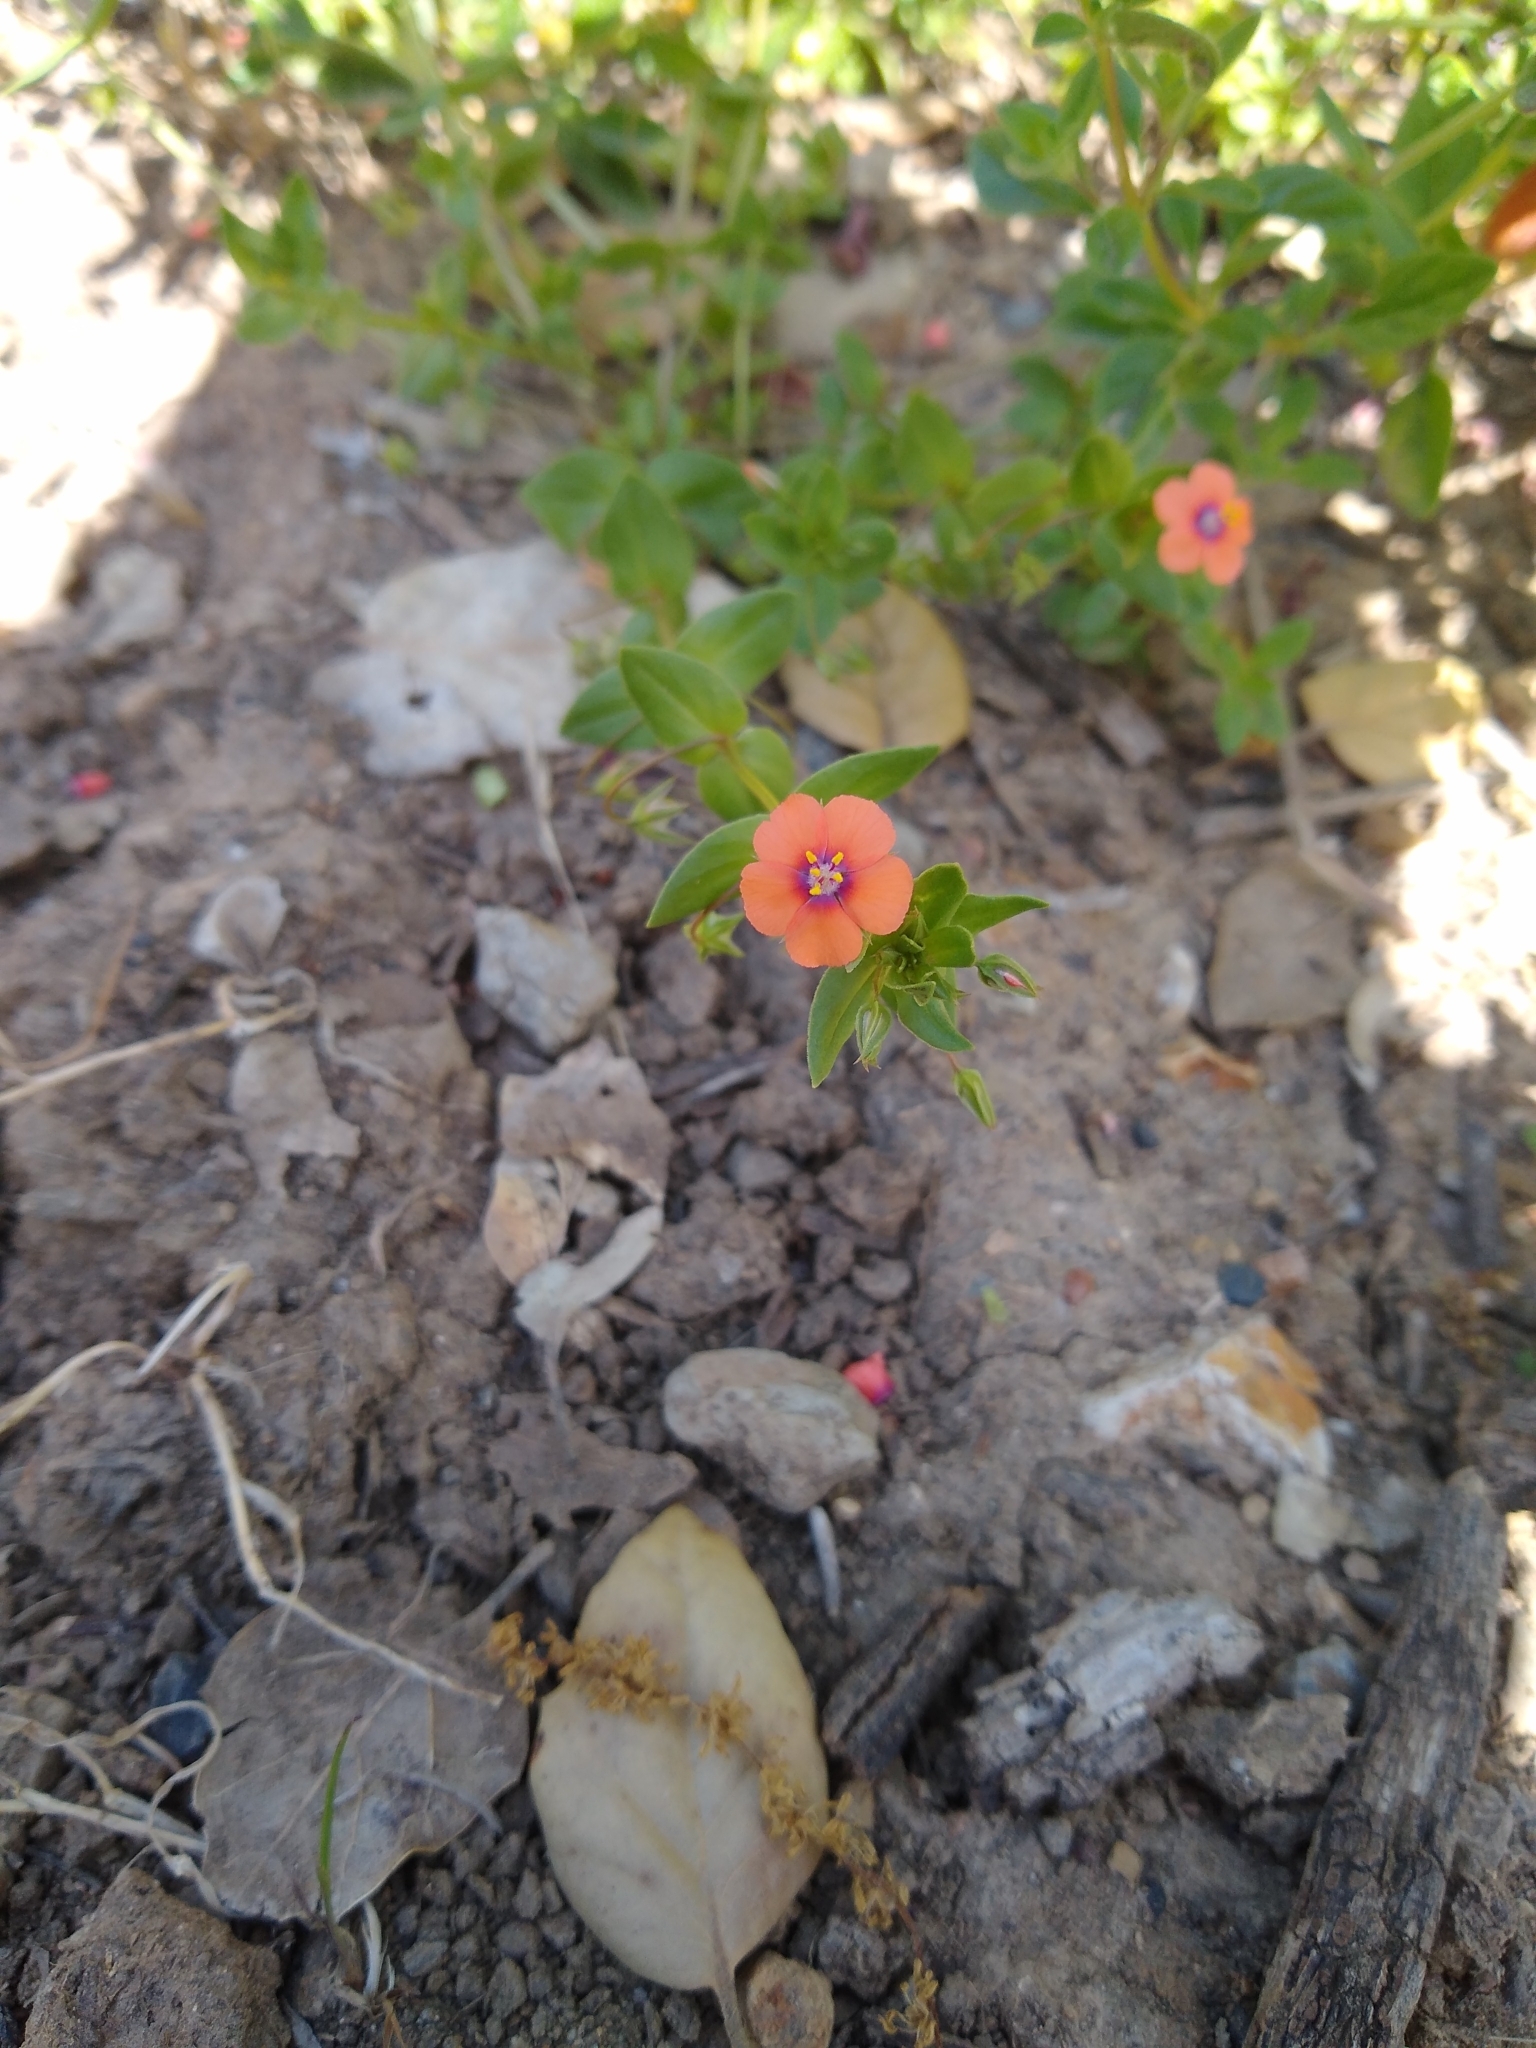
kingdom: Plantae
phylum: Tracheophyta
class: Magnoliopsida
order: Ericales
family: Primulaceae
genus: Lysimachia
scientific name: Lysimachia arvensis
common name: Scarlet pimpernel
